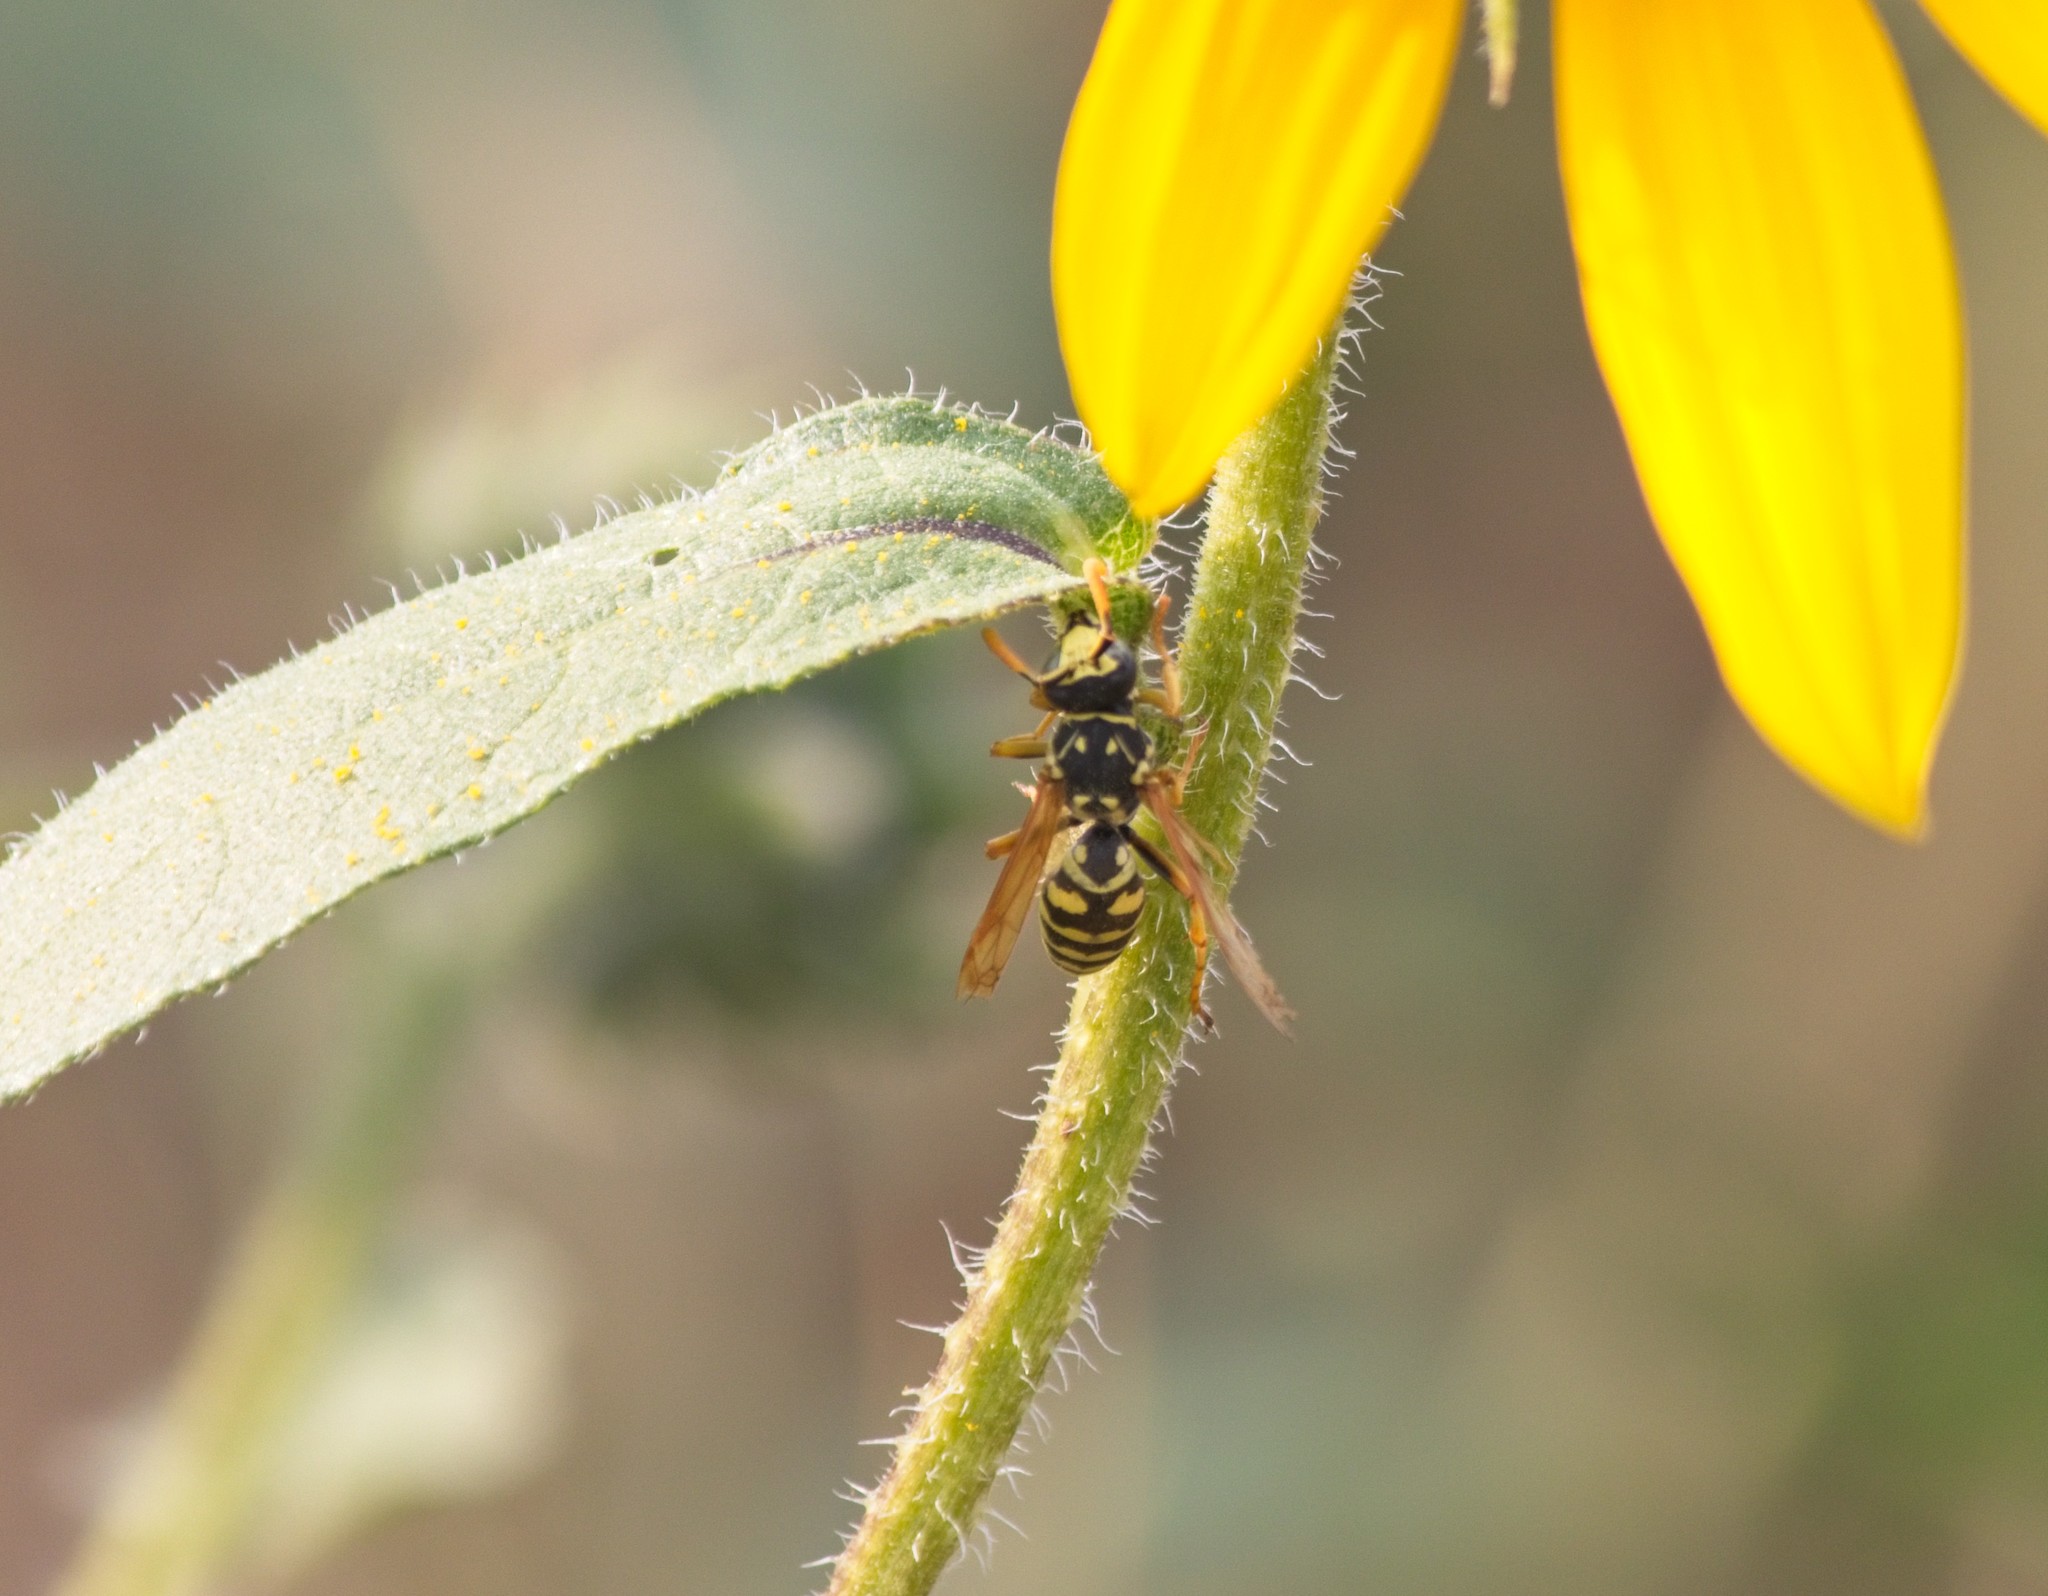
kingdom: Animalia
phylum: Arthropoda
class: Insecta
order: Hymenoptera
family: Eumenidae
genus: Polistes
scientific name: Polistes dominula
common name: Paper wasp
